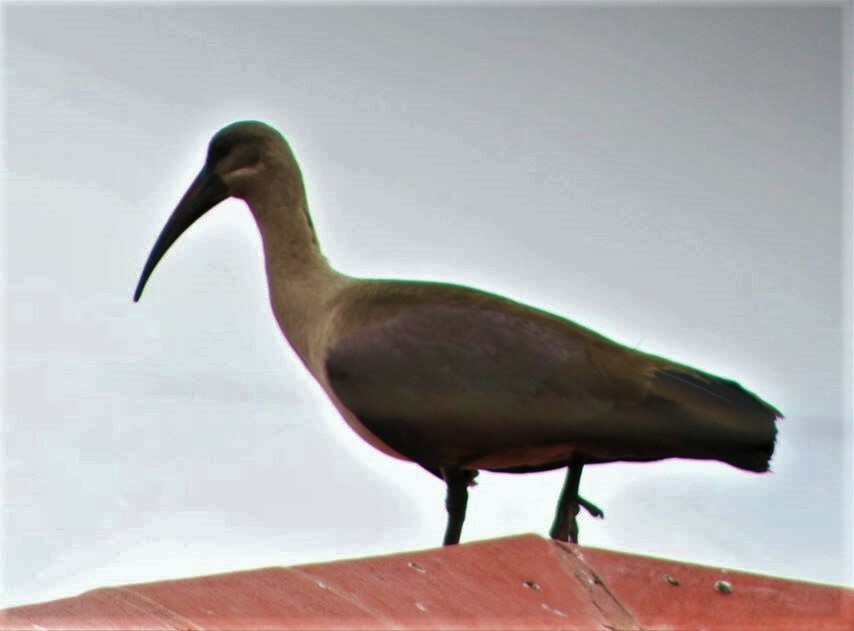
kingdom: Animalia
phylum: Chordata
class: Aves
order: Pelecaniformes
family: Threskiornithidae
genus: Bostrychia
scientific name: Bostrychia hagedash
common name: Hadada ibis
